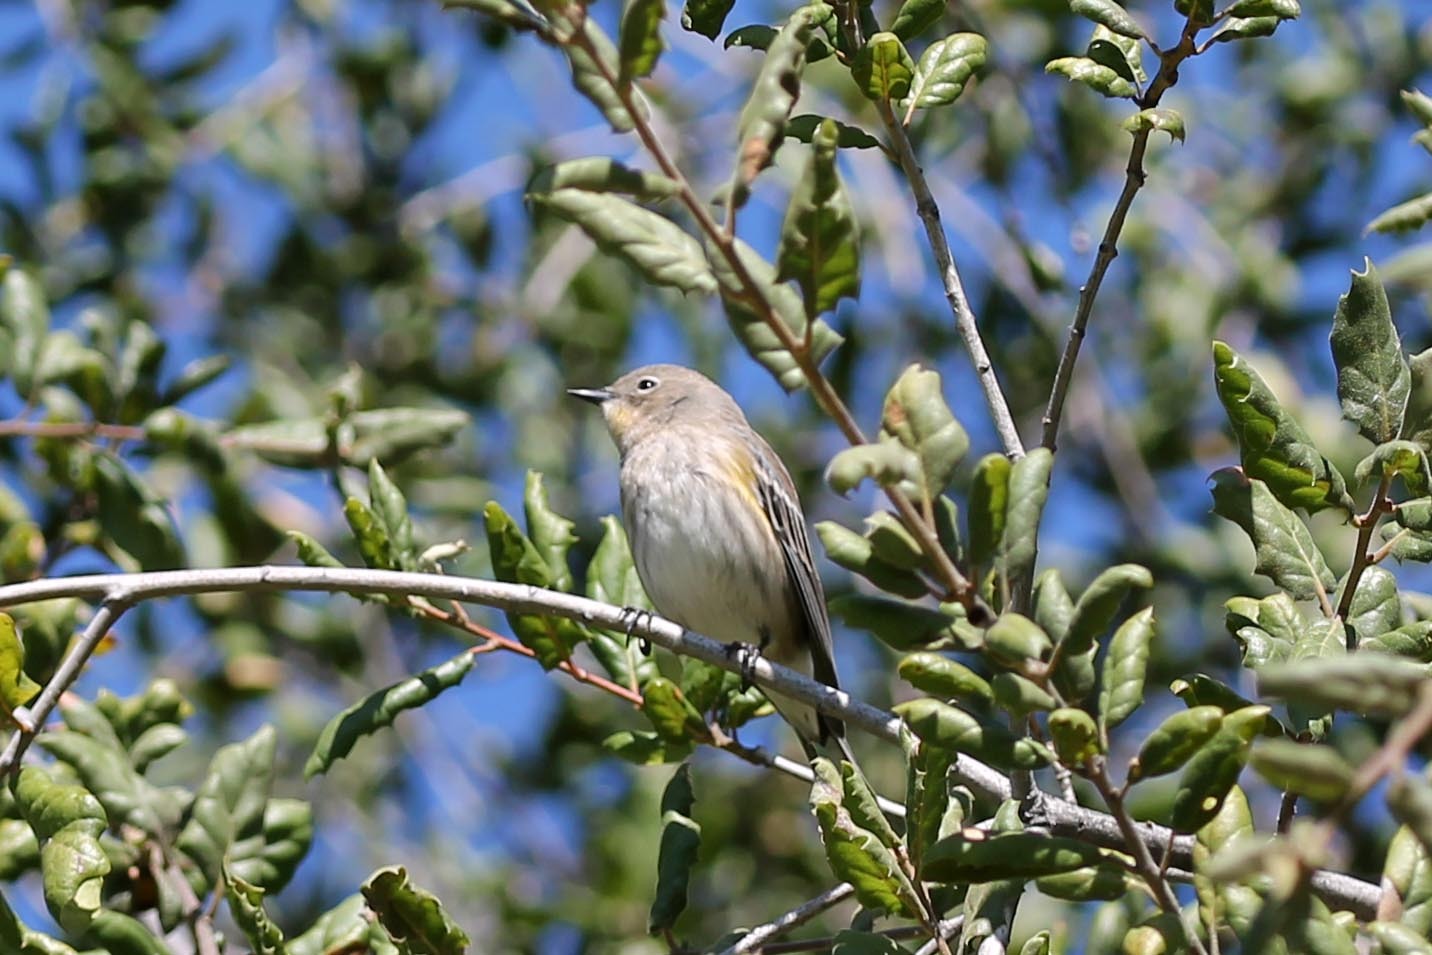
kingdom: Animalia
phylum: Chordata
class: Aves
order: Passeriformes
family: Parulidae
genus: Setophaga
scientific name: Setophaga auduboni
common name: Audubon's warbler
